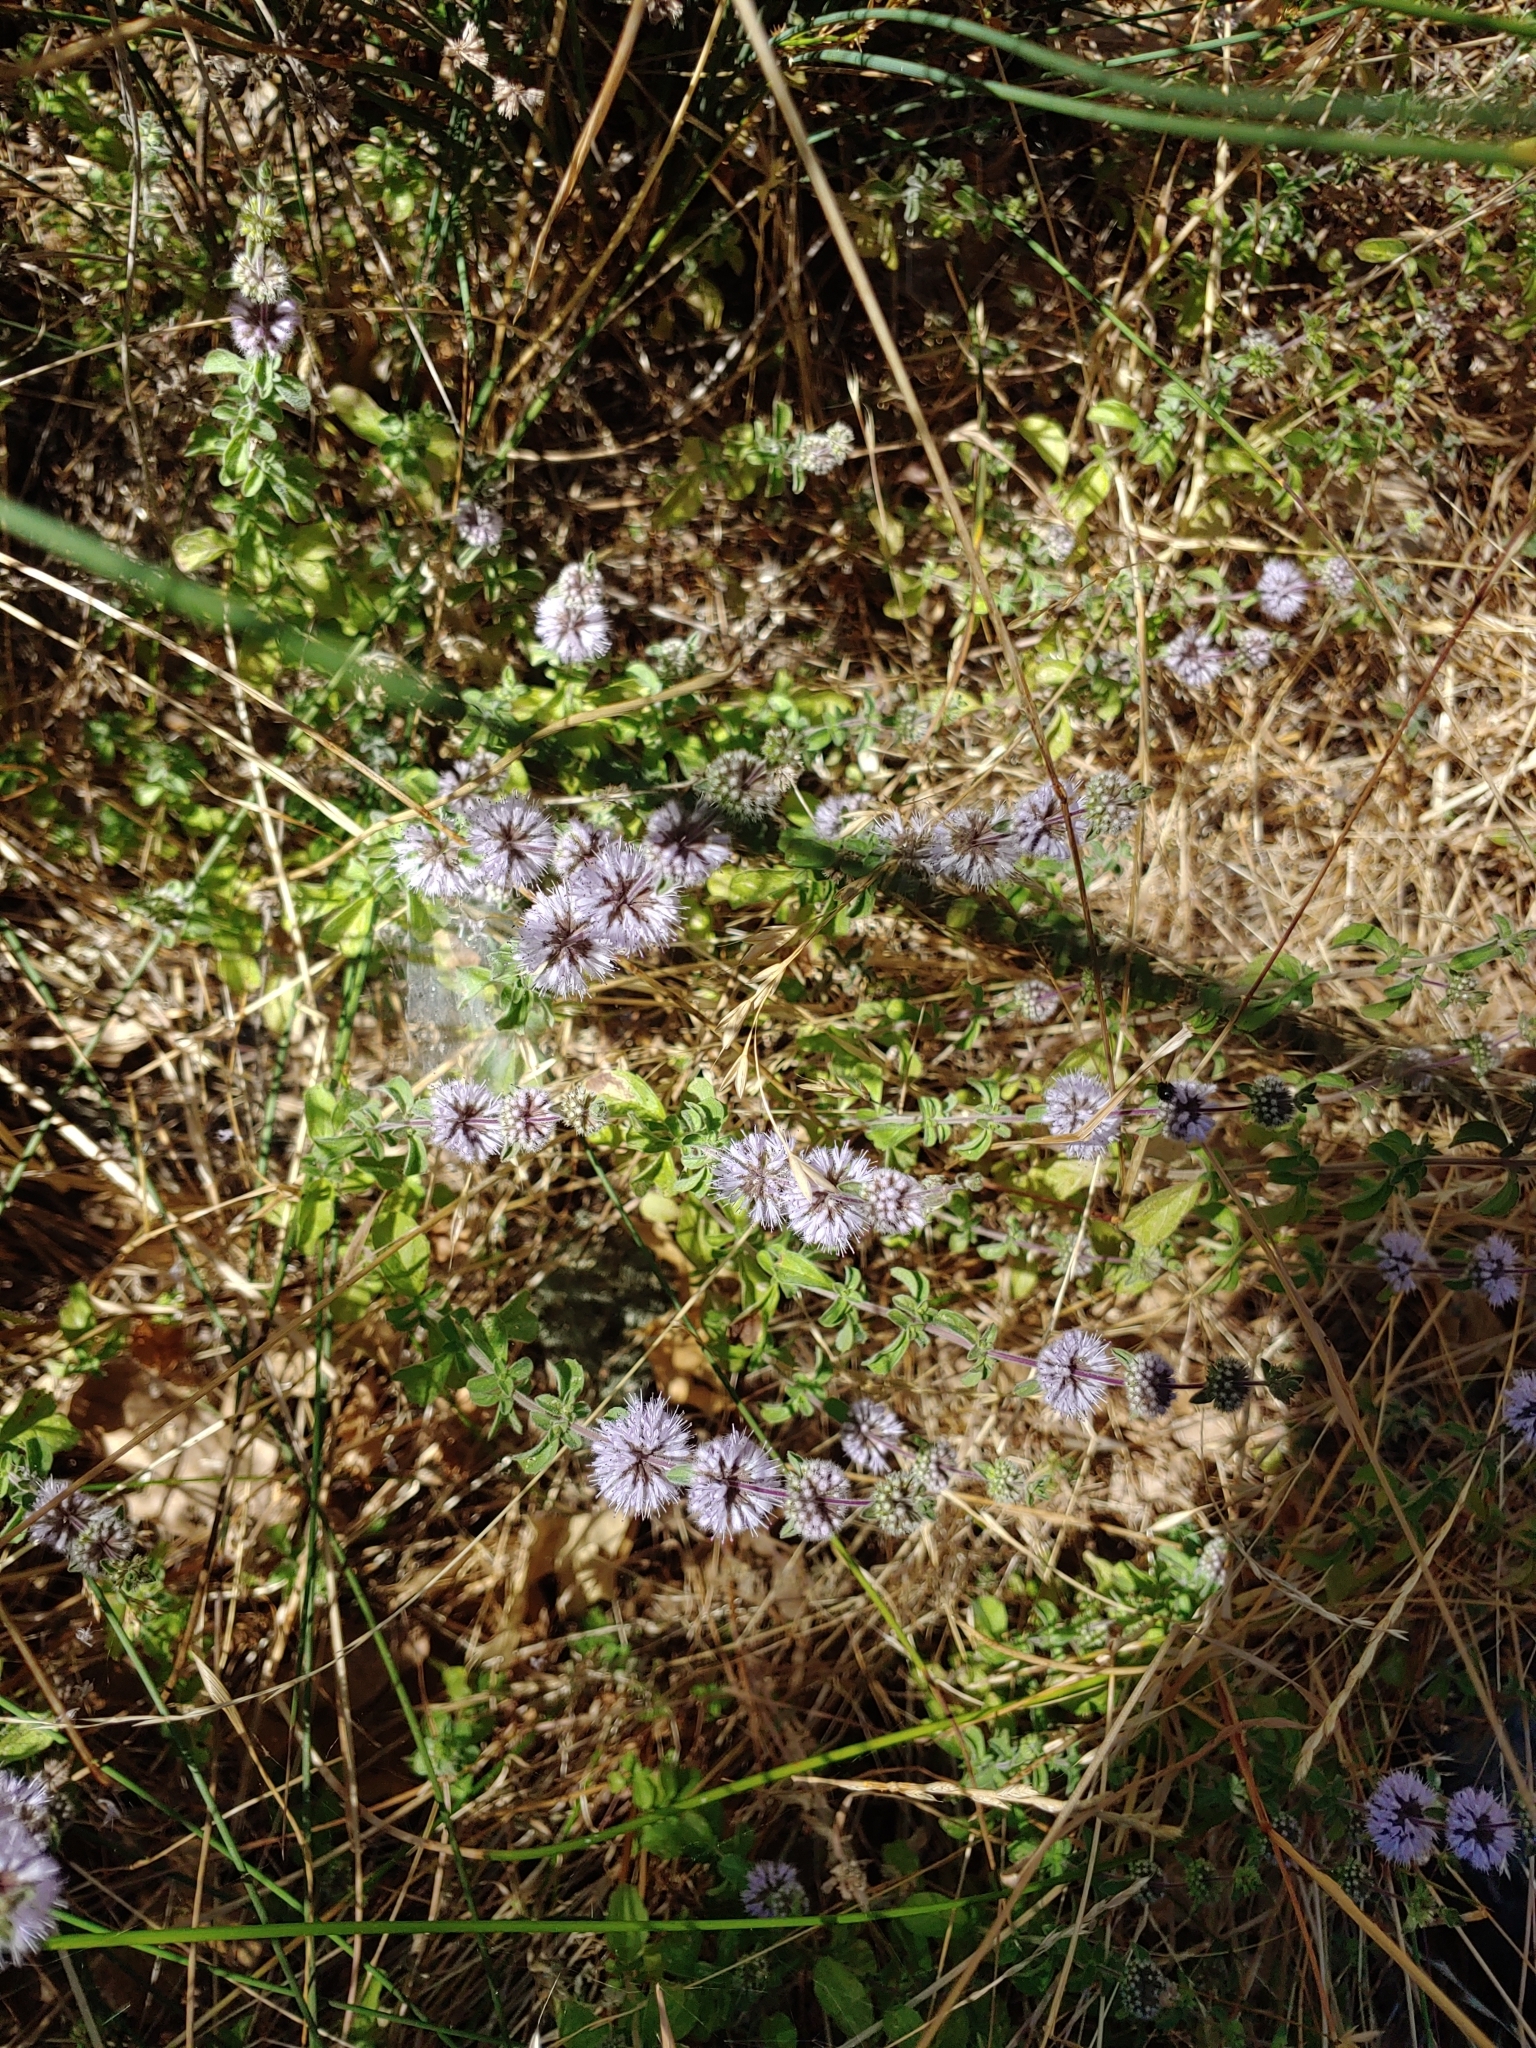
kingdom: Plantae
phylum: Tracheophyta
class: Magnoliopsida
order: Lamiales
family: Lamiaceae
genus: Mentha
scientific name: Mentha pulegium
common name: Pennyroyal
